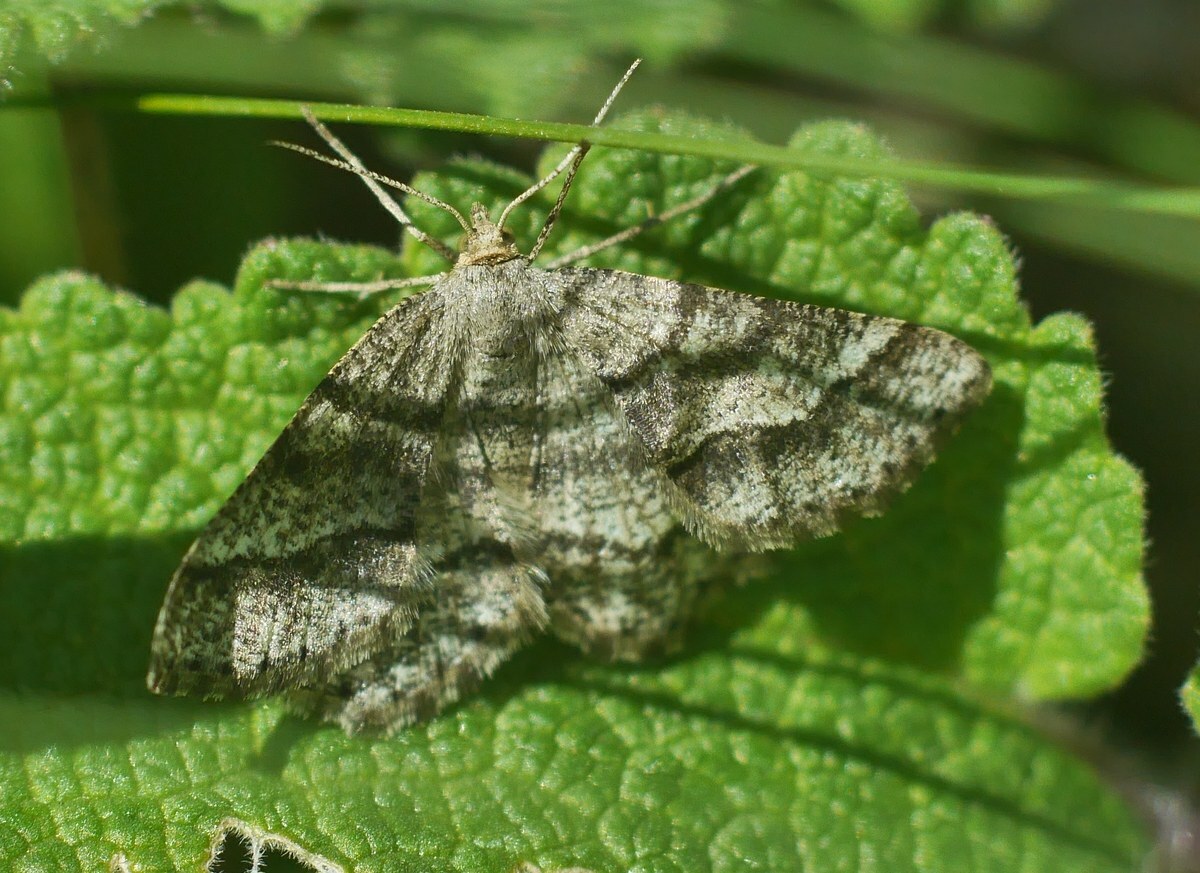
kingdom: Animalia
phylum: Arthropoda
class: Insecta
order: Lepidoptera
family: Geometridae
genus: Tephrina
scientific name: Tephrina murinaria
